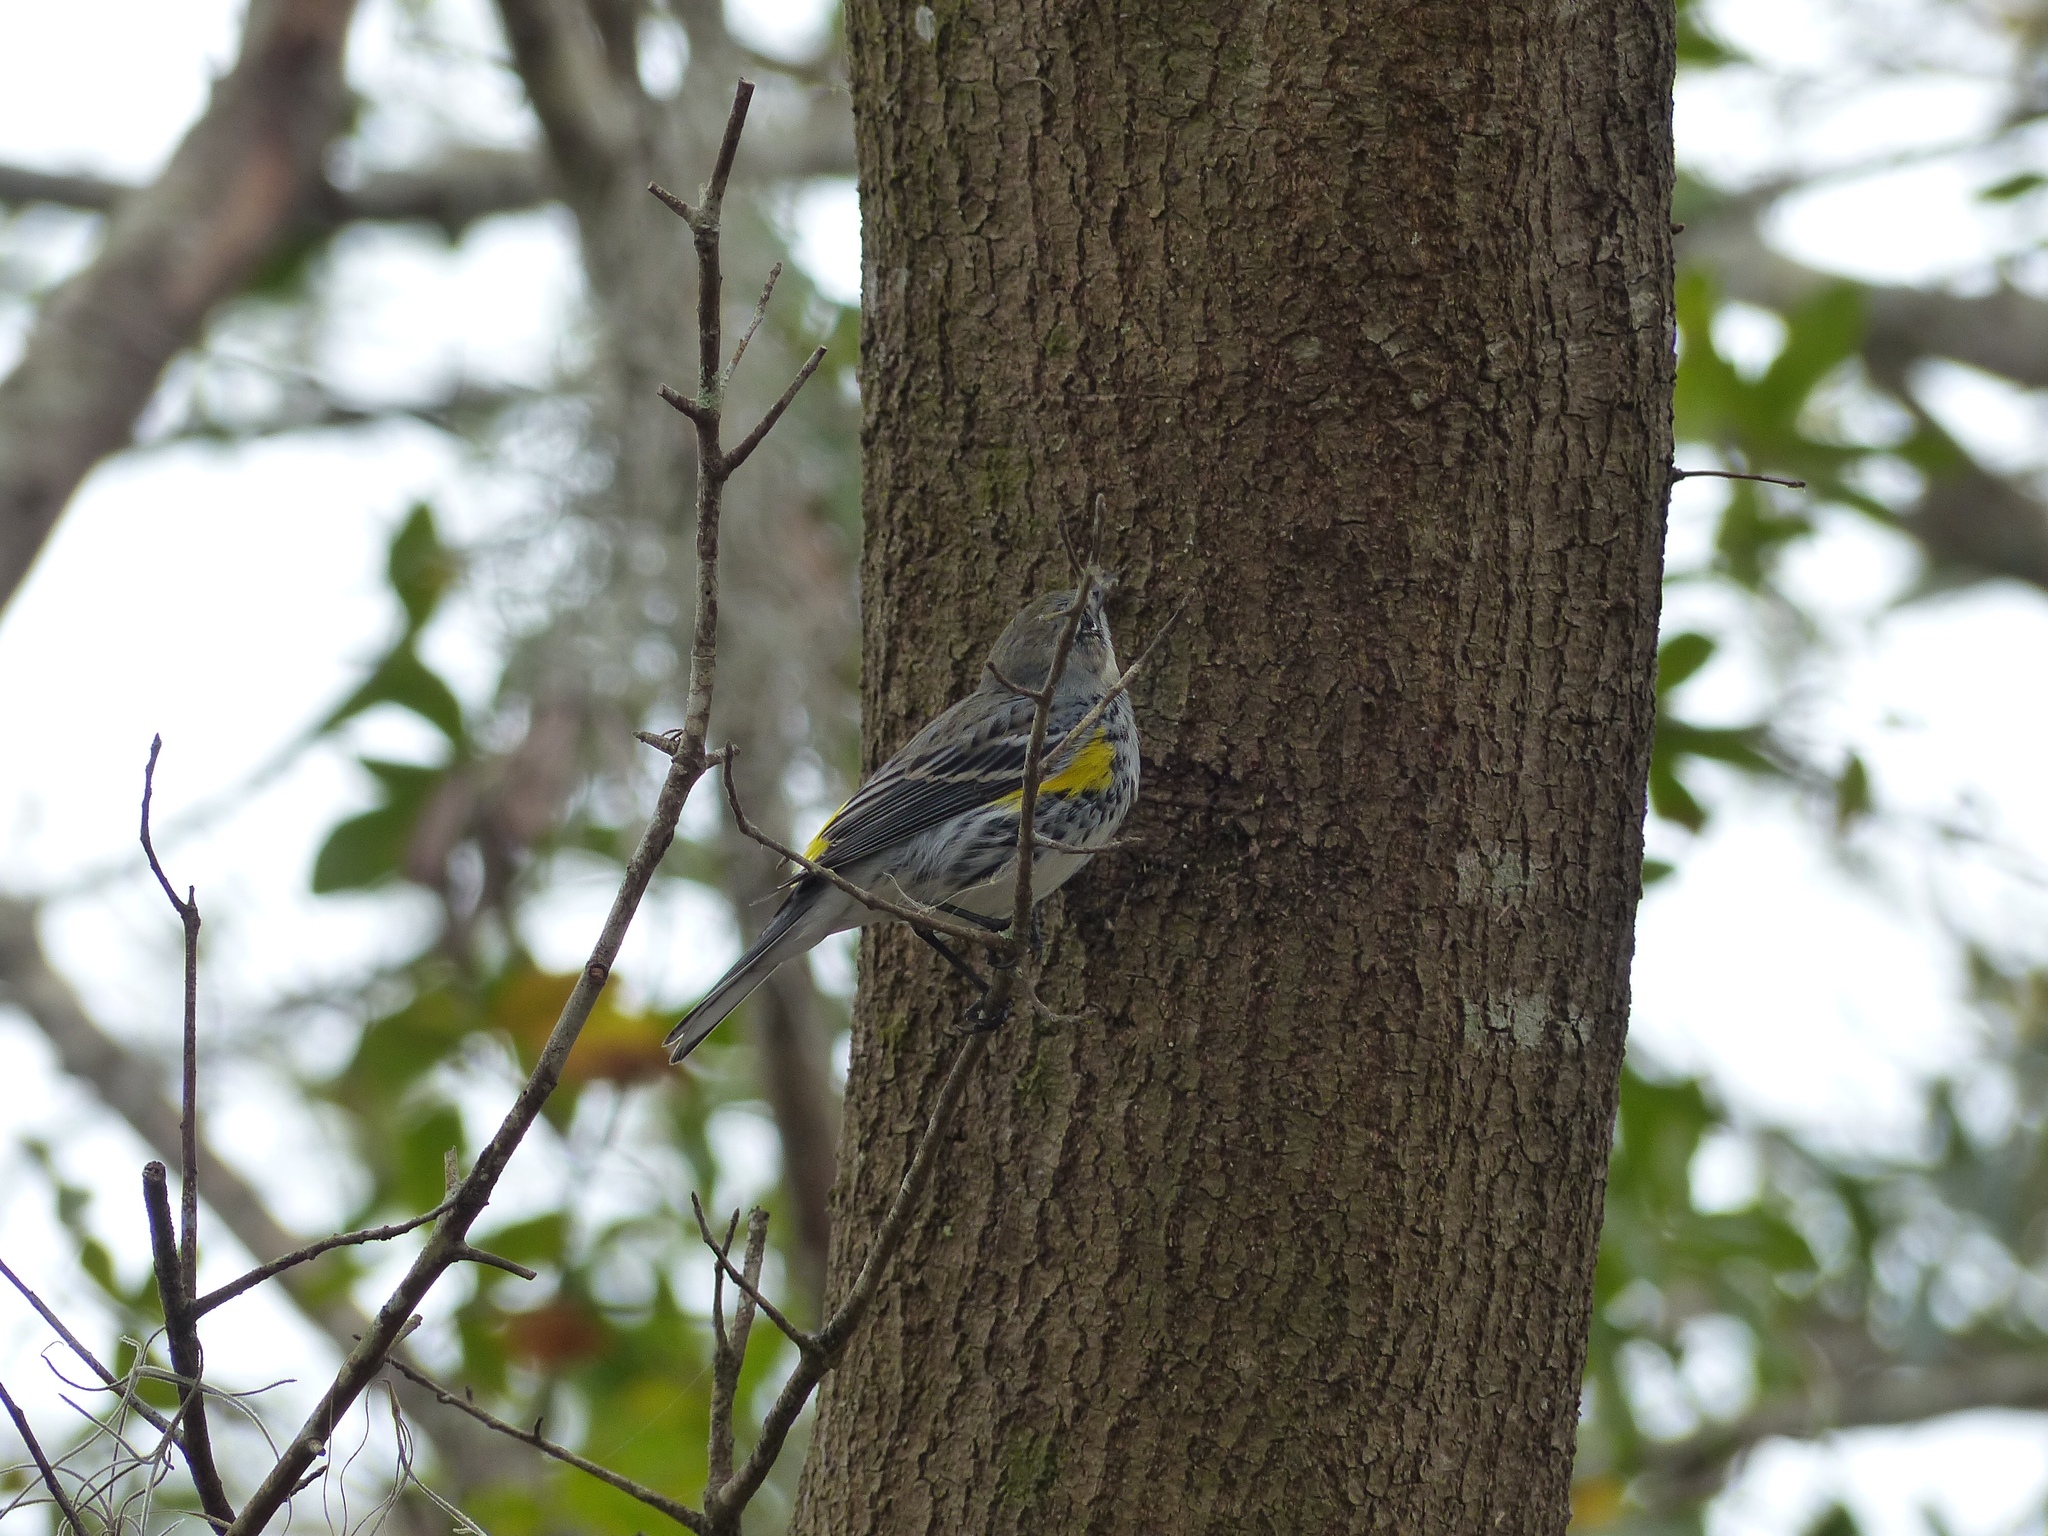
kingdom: Animalia
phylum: Chordata
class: Aves
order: Passeriformes
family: Parulidae
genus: Setophaga
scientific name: Setophaga coronata
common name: Myrtle warbler
